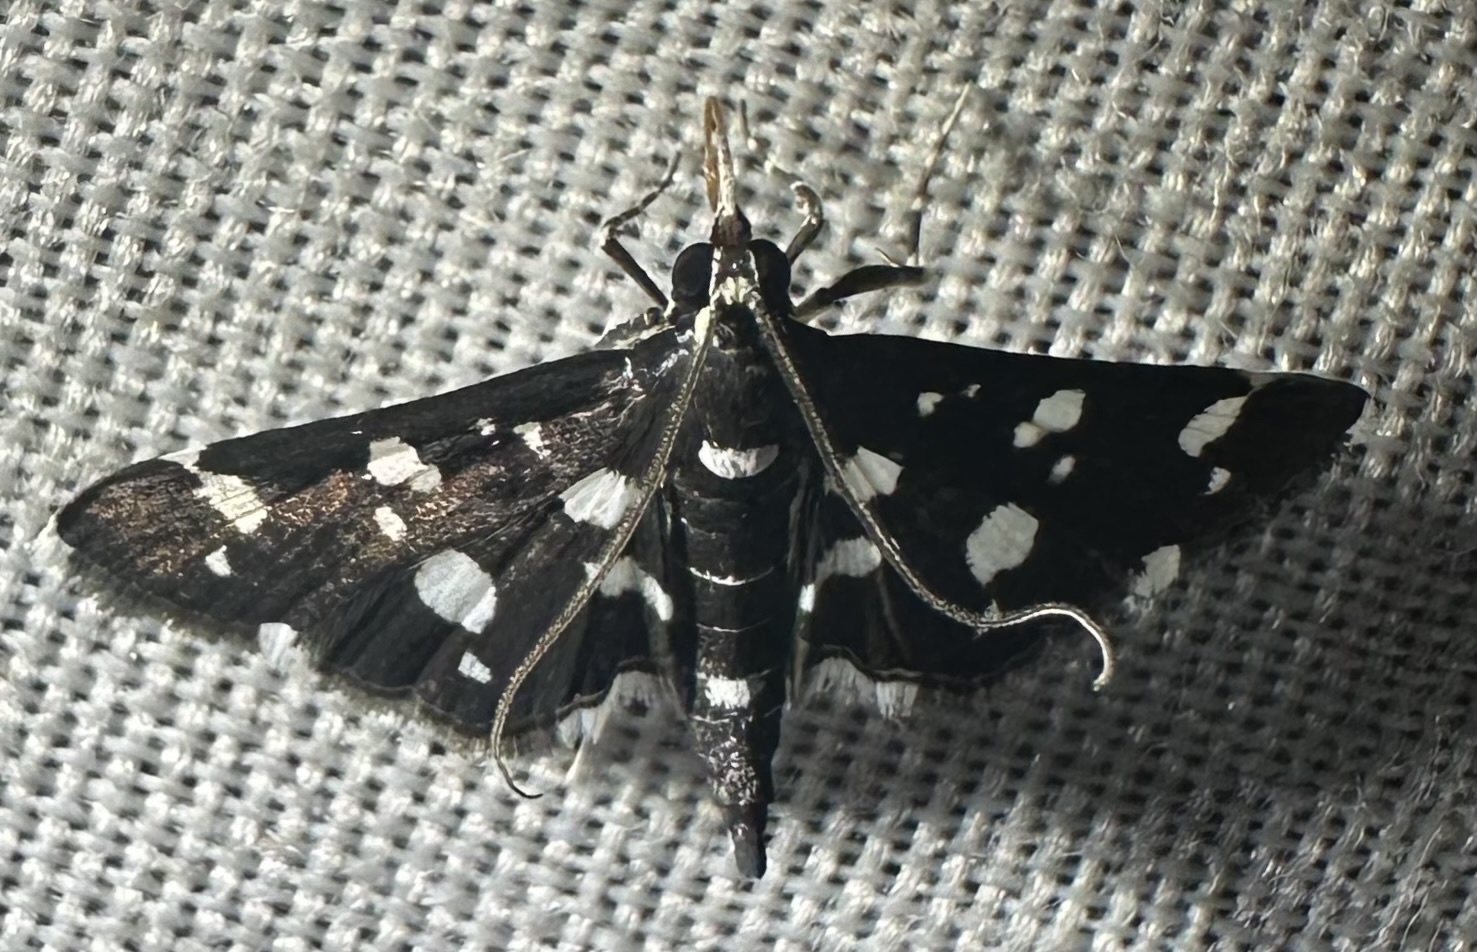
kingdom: Animalia
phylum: Arthropoda
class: Insecta
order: Lepidoptera
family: Crambidae
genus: Bocchoris
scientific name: Bocchoris inspersalis
